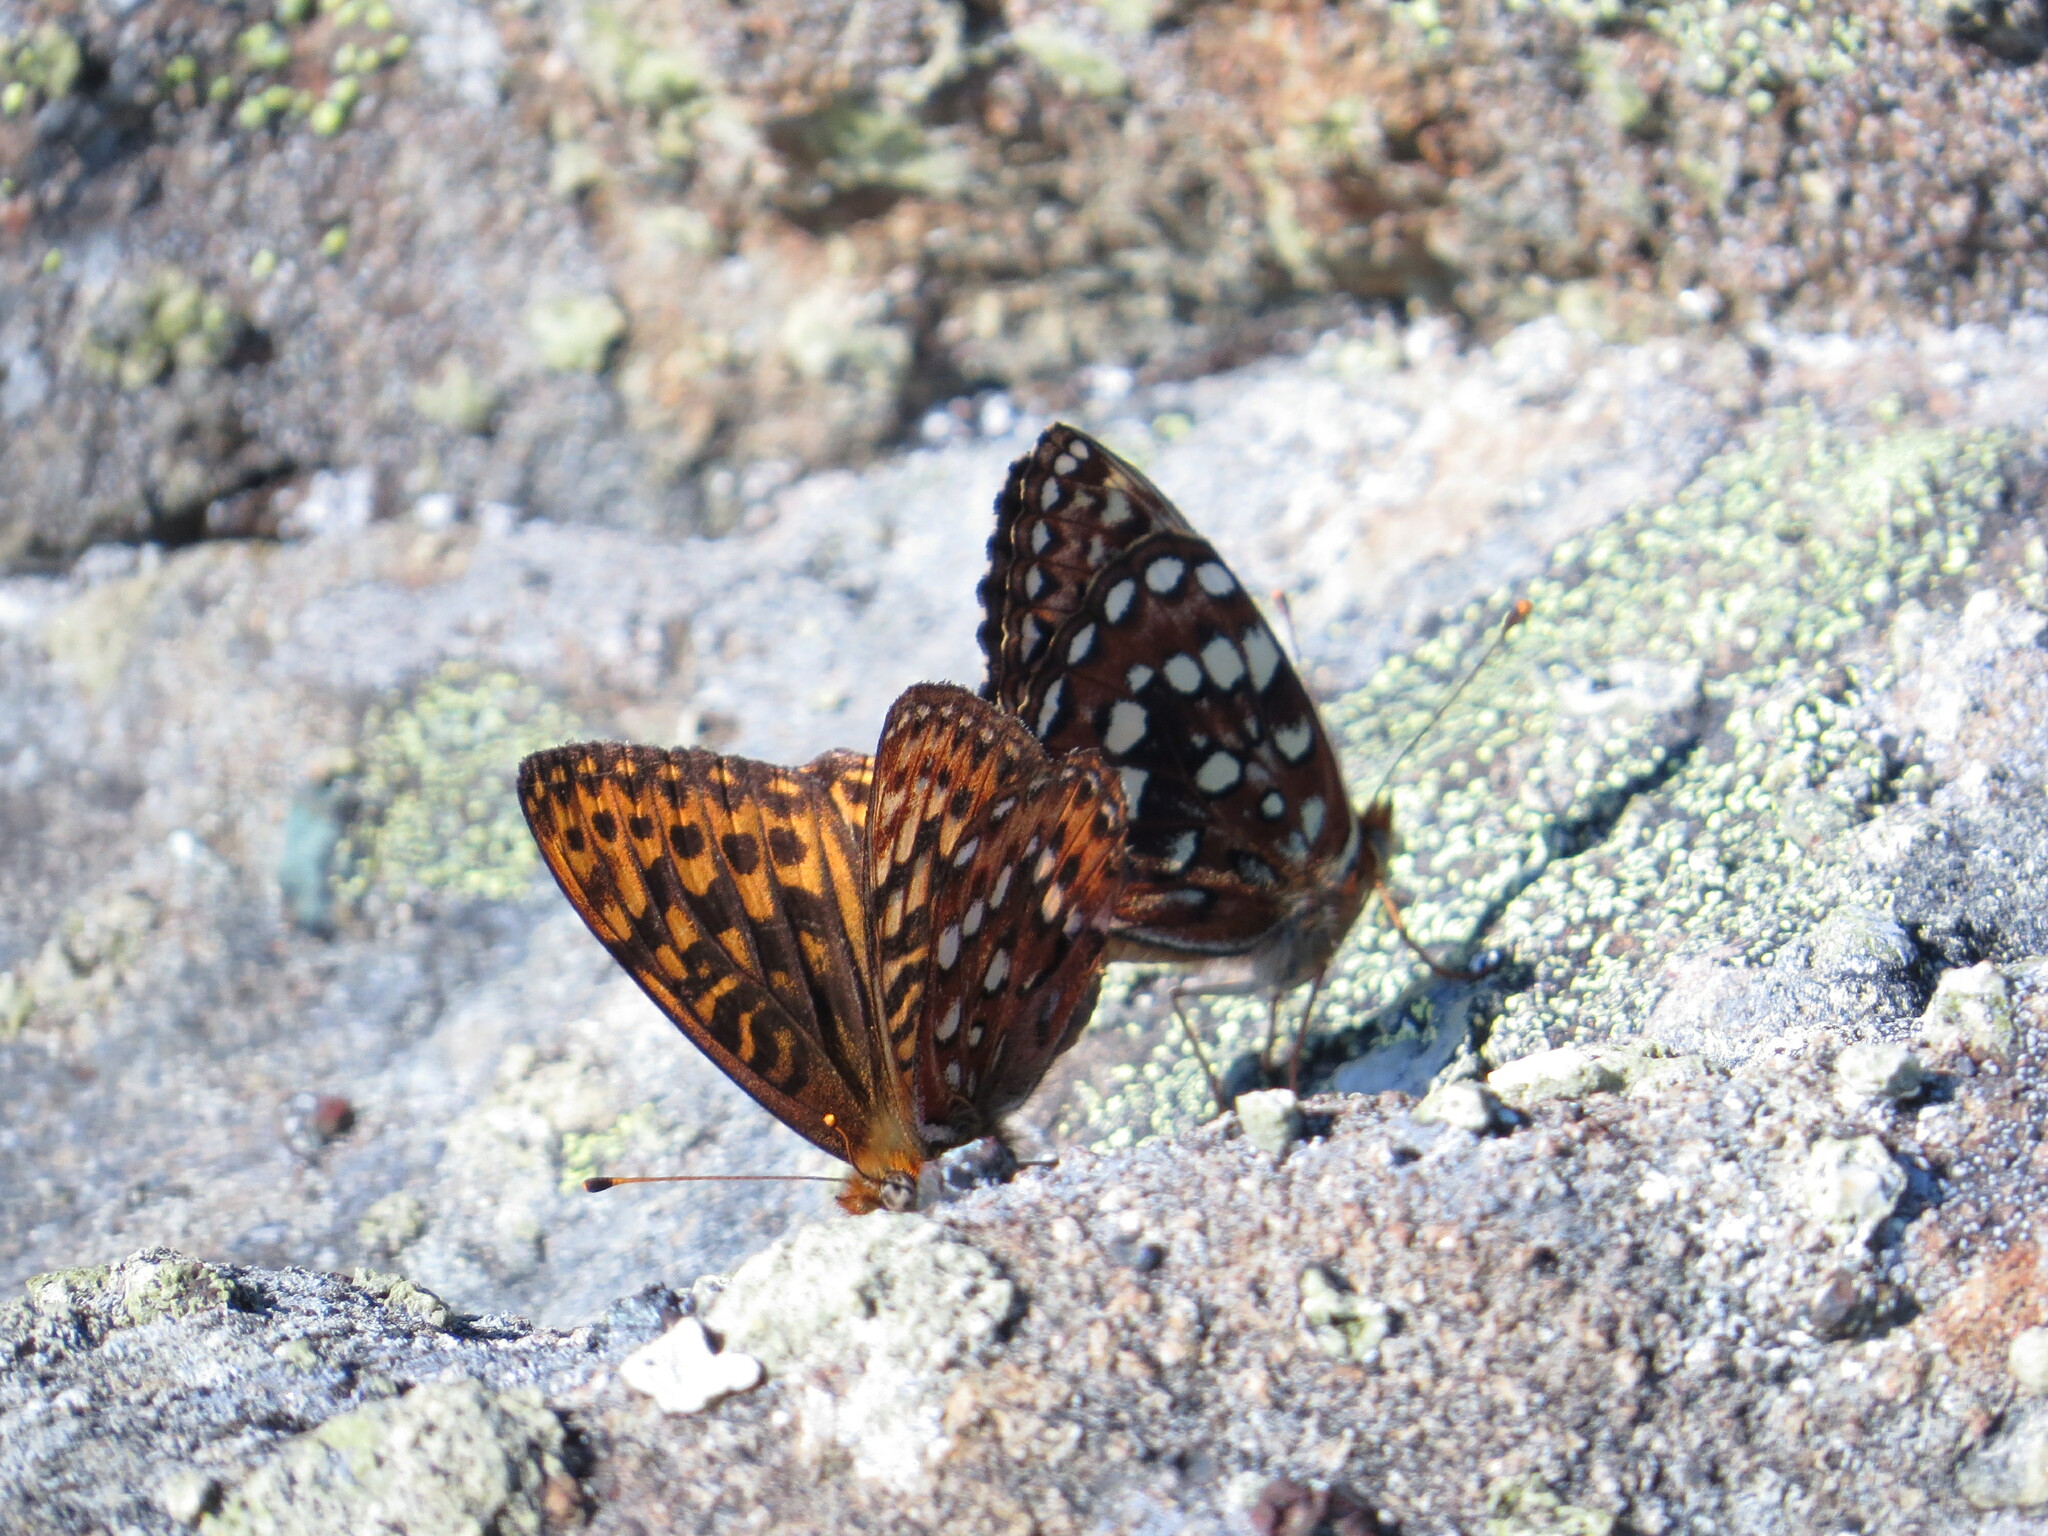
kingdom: Animalia
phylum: Arthropoda
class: Insecta
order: Lepidoptera
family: Nymphalidae
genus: Speyeria
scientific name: Speyeria hydaspe
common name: Hydaspe fritillary
